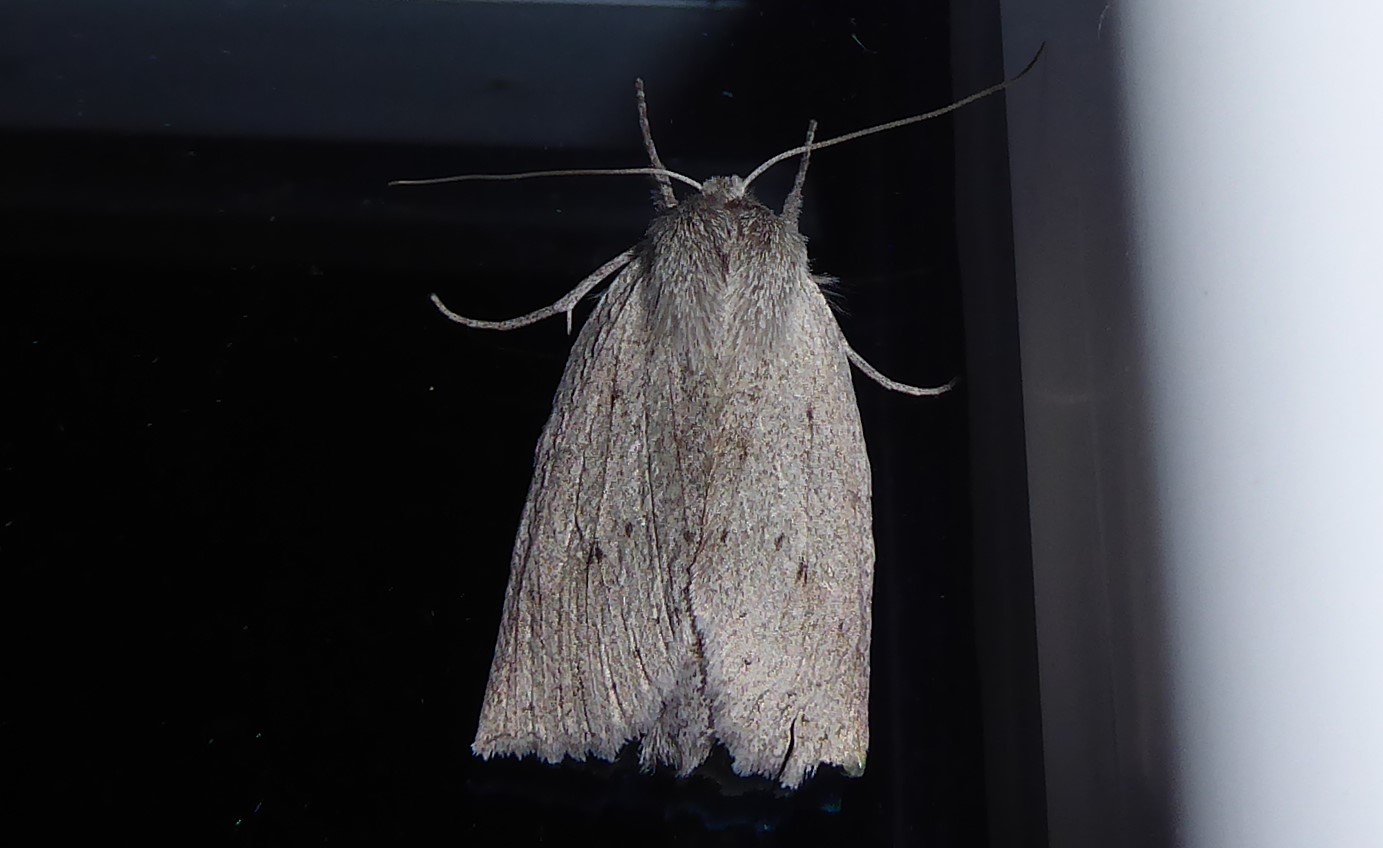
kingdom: Animalia
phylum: Arthropoda
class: Insecta
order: Lepidoptera
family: Geometridae
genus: Declana
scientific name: Declana leptomera
